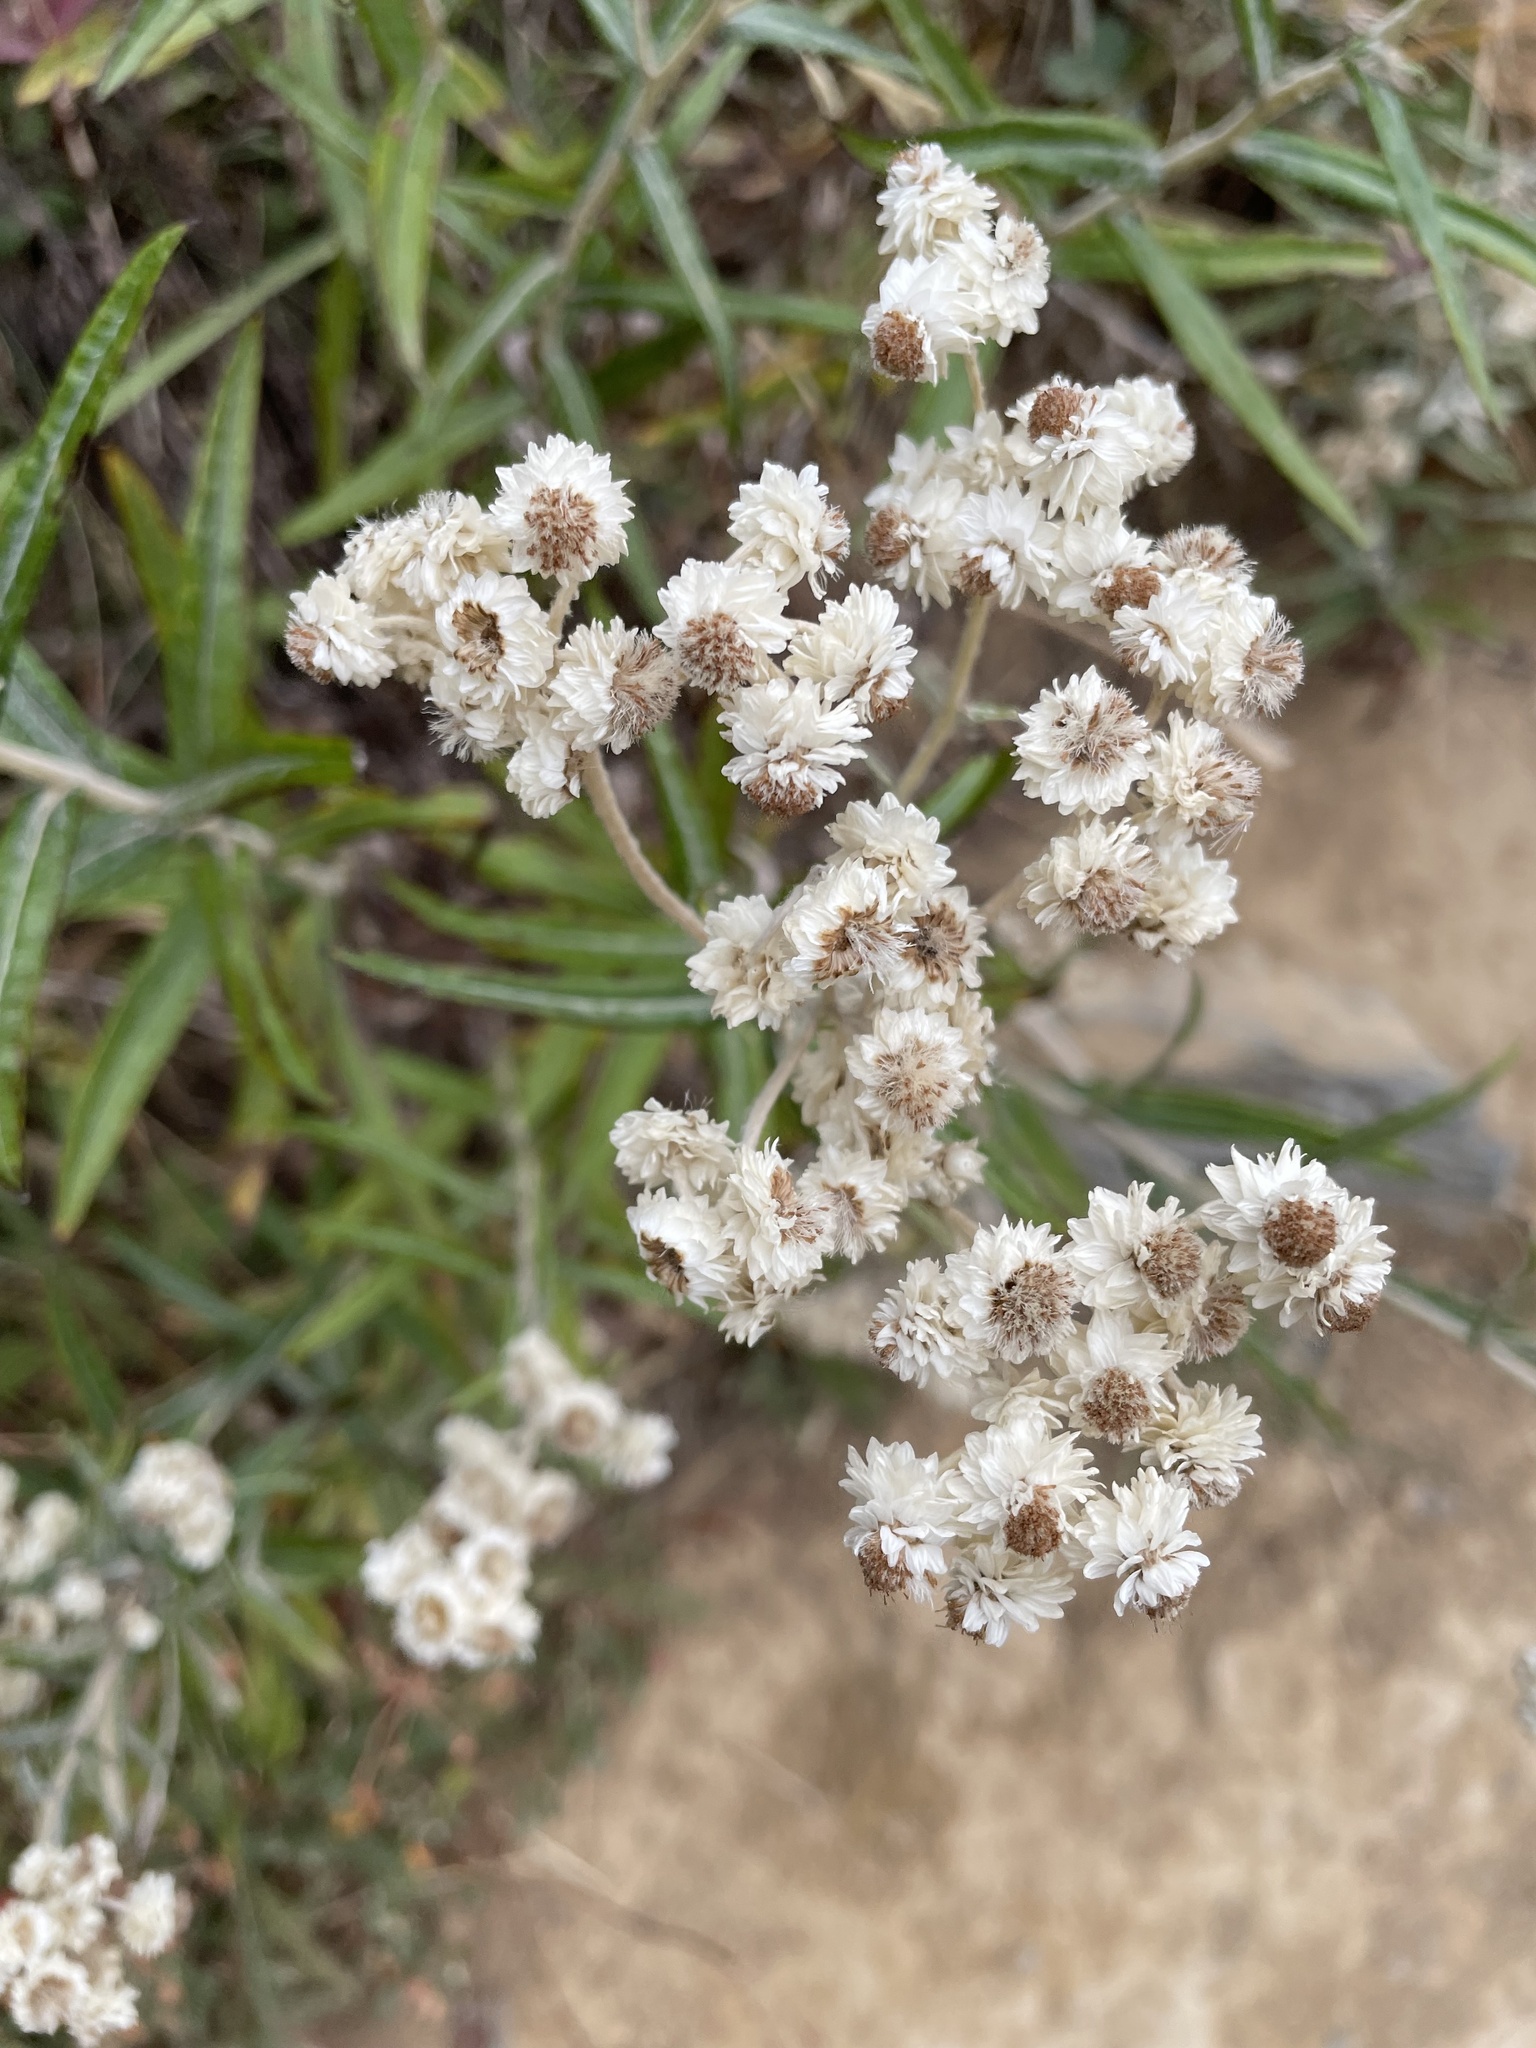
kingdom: Plantae
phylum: Tracheophyta
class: Magnoliopsida
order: Asterales
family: Asteraceae
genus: Anaphalis
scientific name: Anaphalis margaritacea
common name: Pearly everlasting
